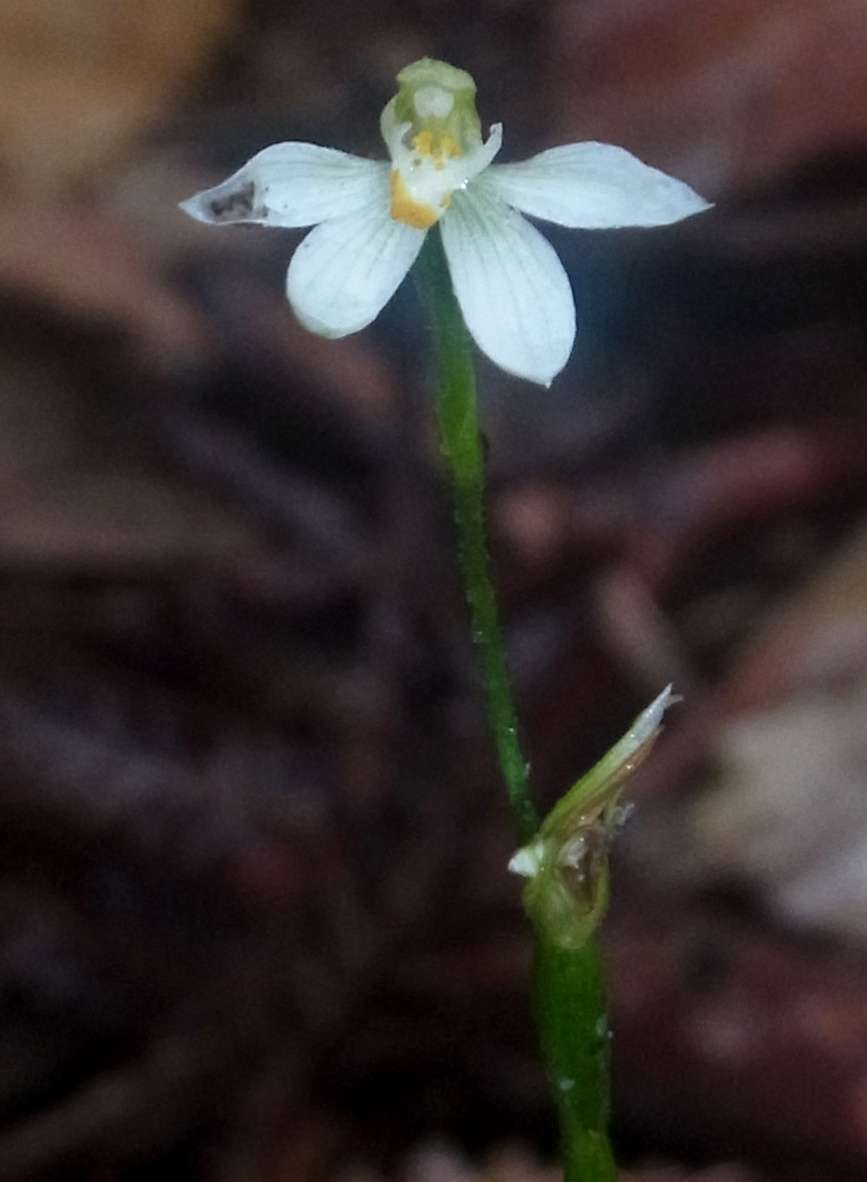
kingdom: Plantae
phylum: Tracheophyta
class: Liliopsida
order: Asparagales
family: Orchidaceae
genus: Caladenia
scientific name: Caladenia aurantiaca
